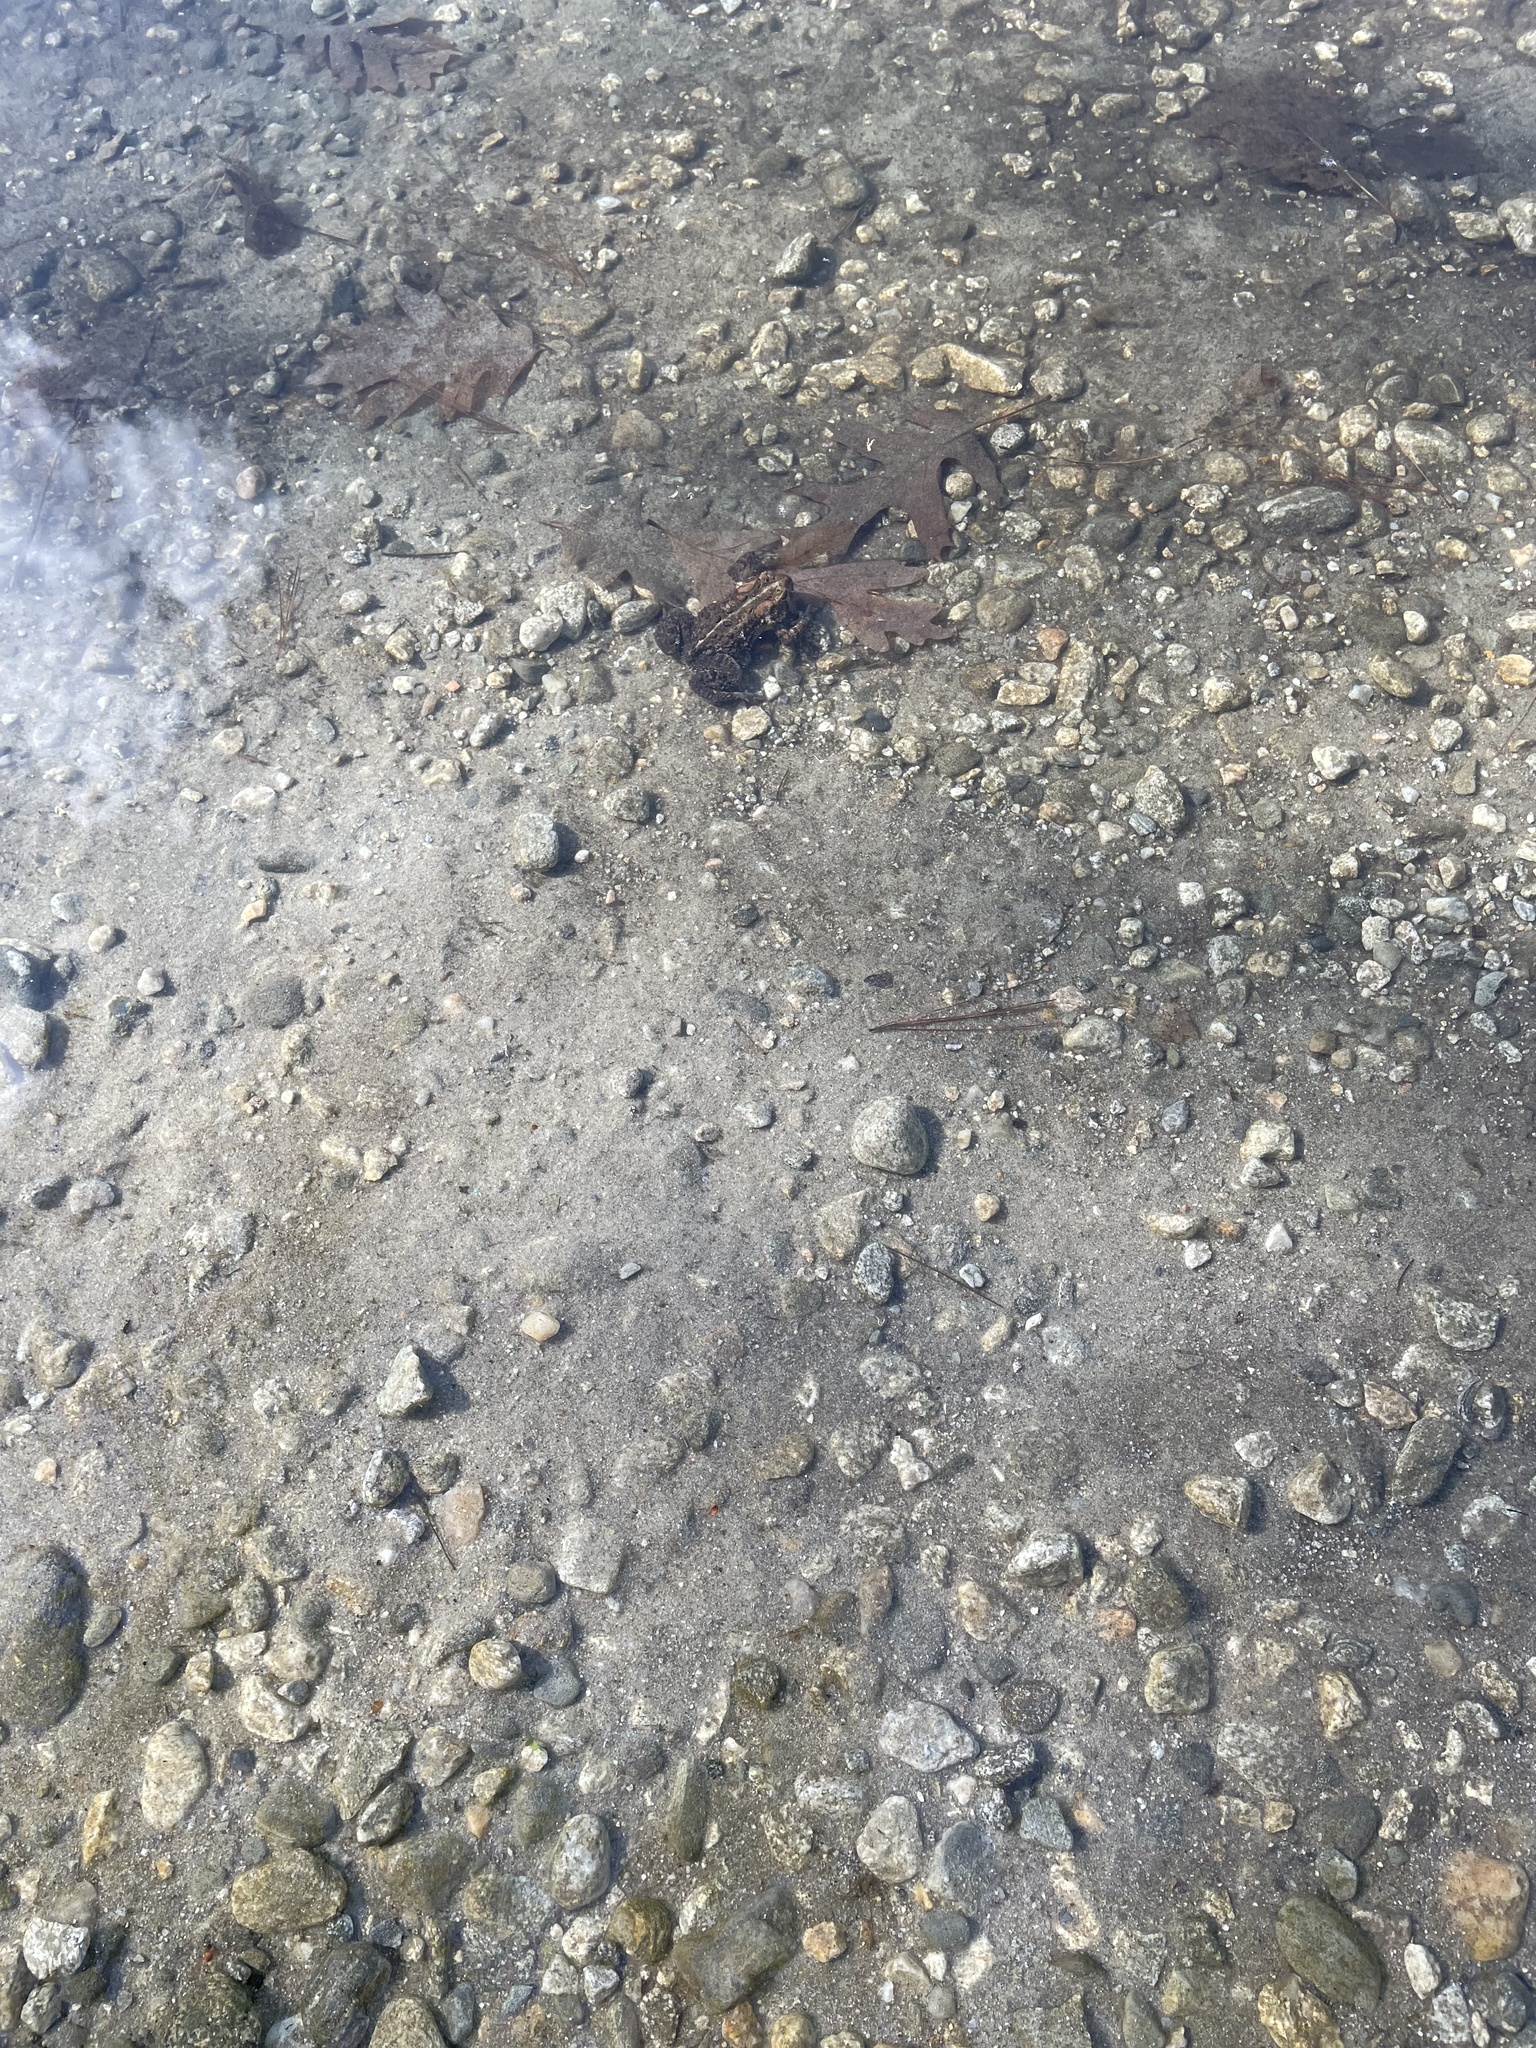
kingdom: Animalia
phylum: Chordata
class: Amphibia
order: Anura
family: Bufonidae
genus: Anaxyrus
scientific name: Anaxyrus americanus
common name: American toad
